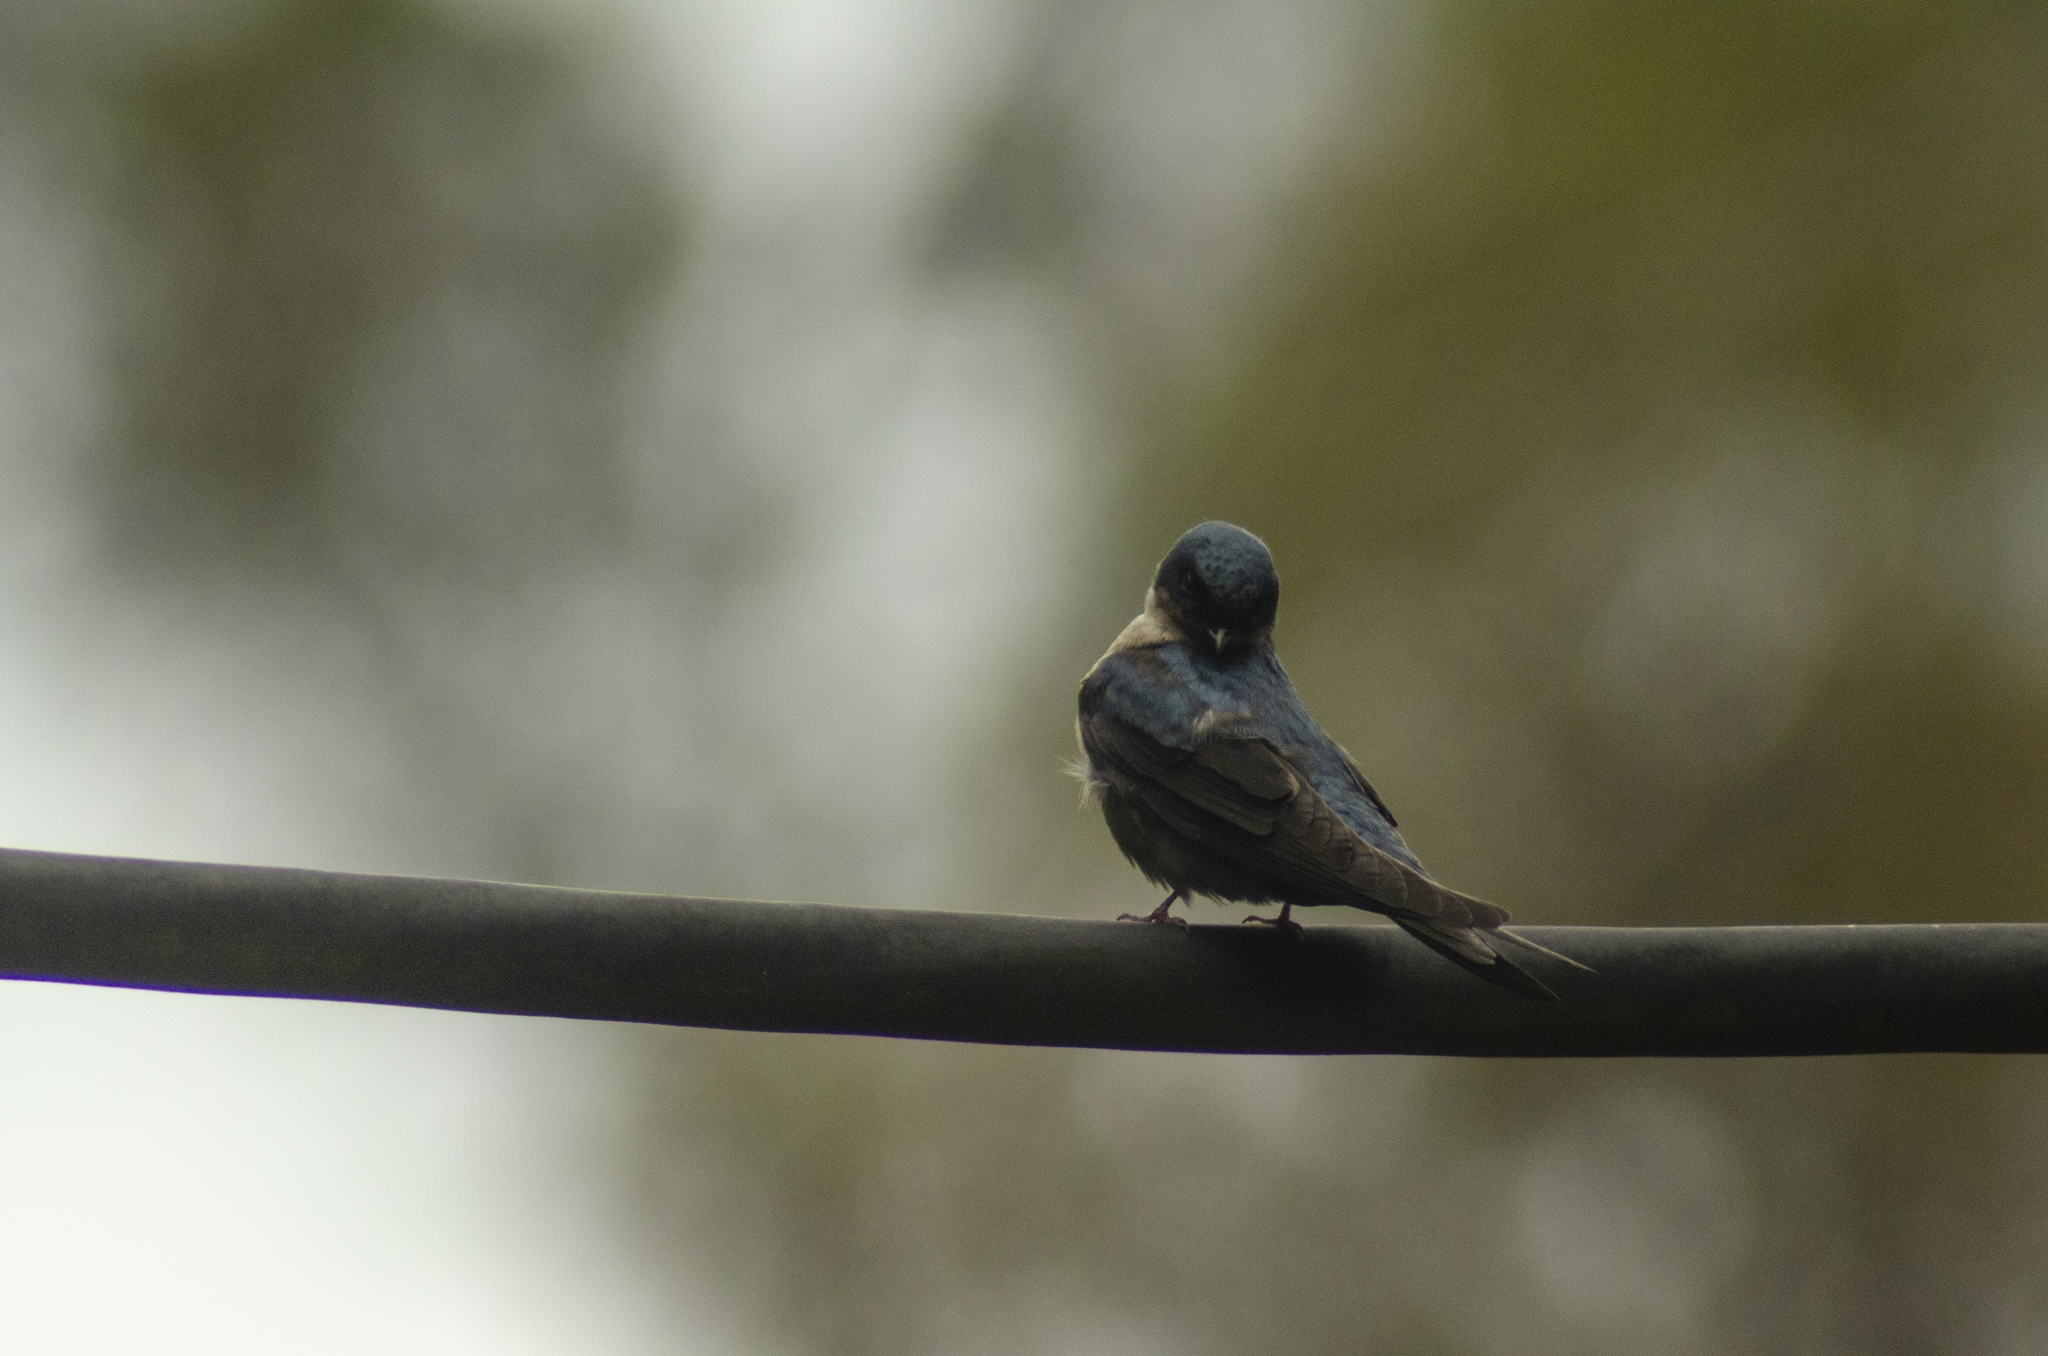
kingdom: Animalia
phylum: Chordata
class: Aves
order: Passeriformes
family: Hirundinidae
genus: Notiochelidon
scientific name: Notiochelidon murina
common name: Brown-bellied swallow
